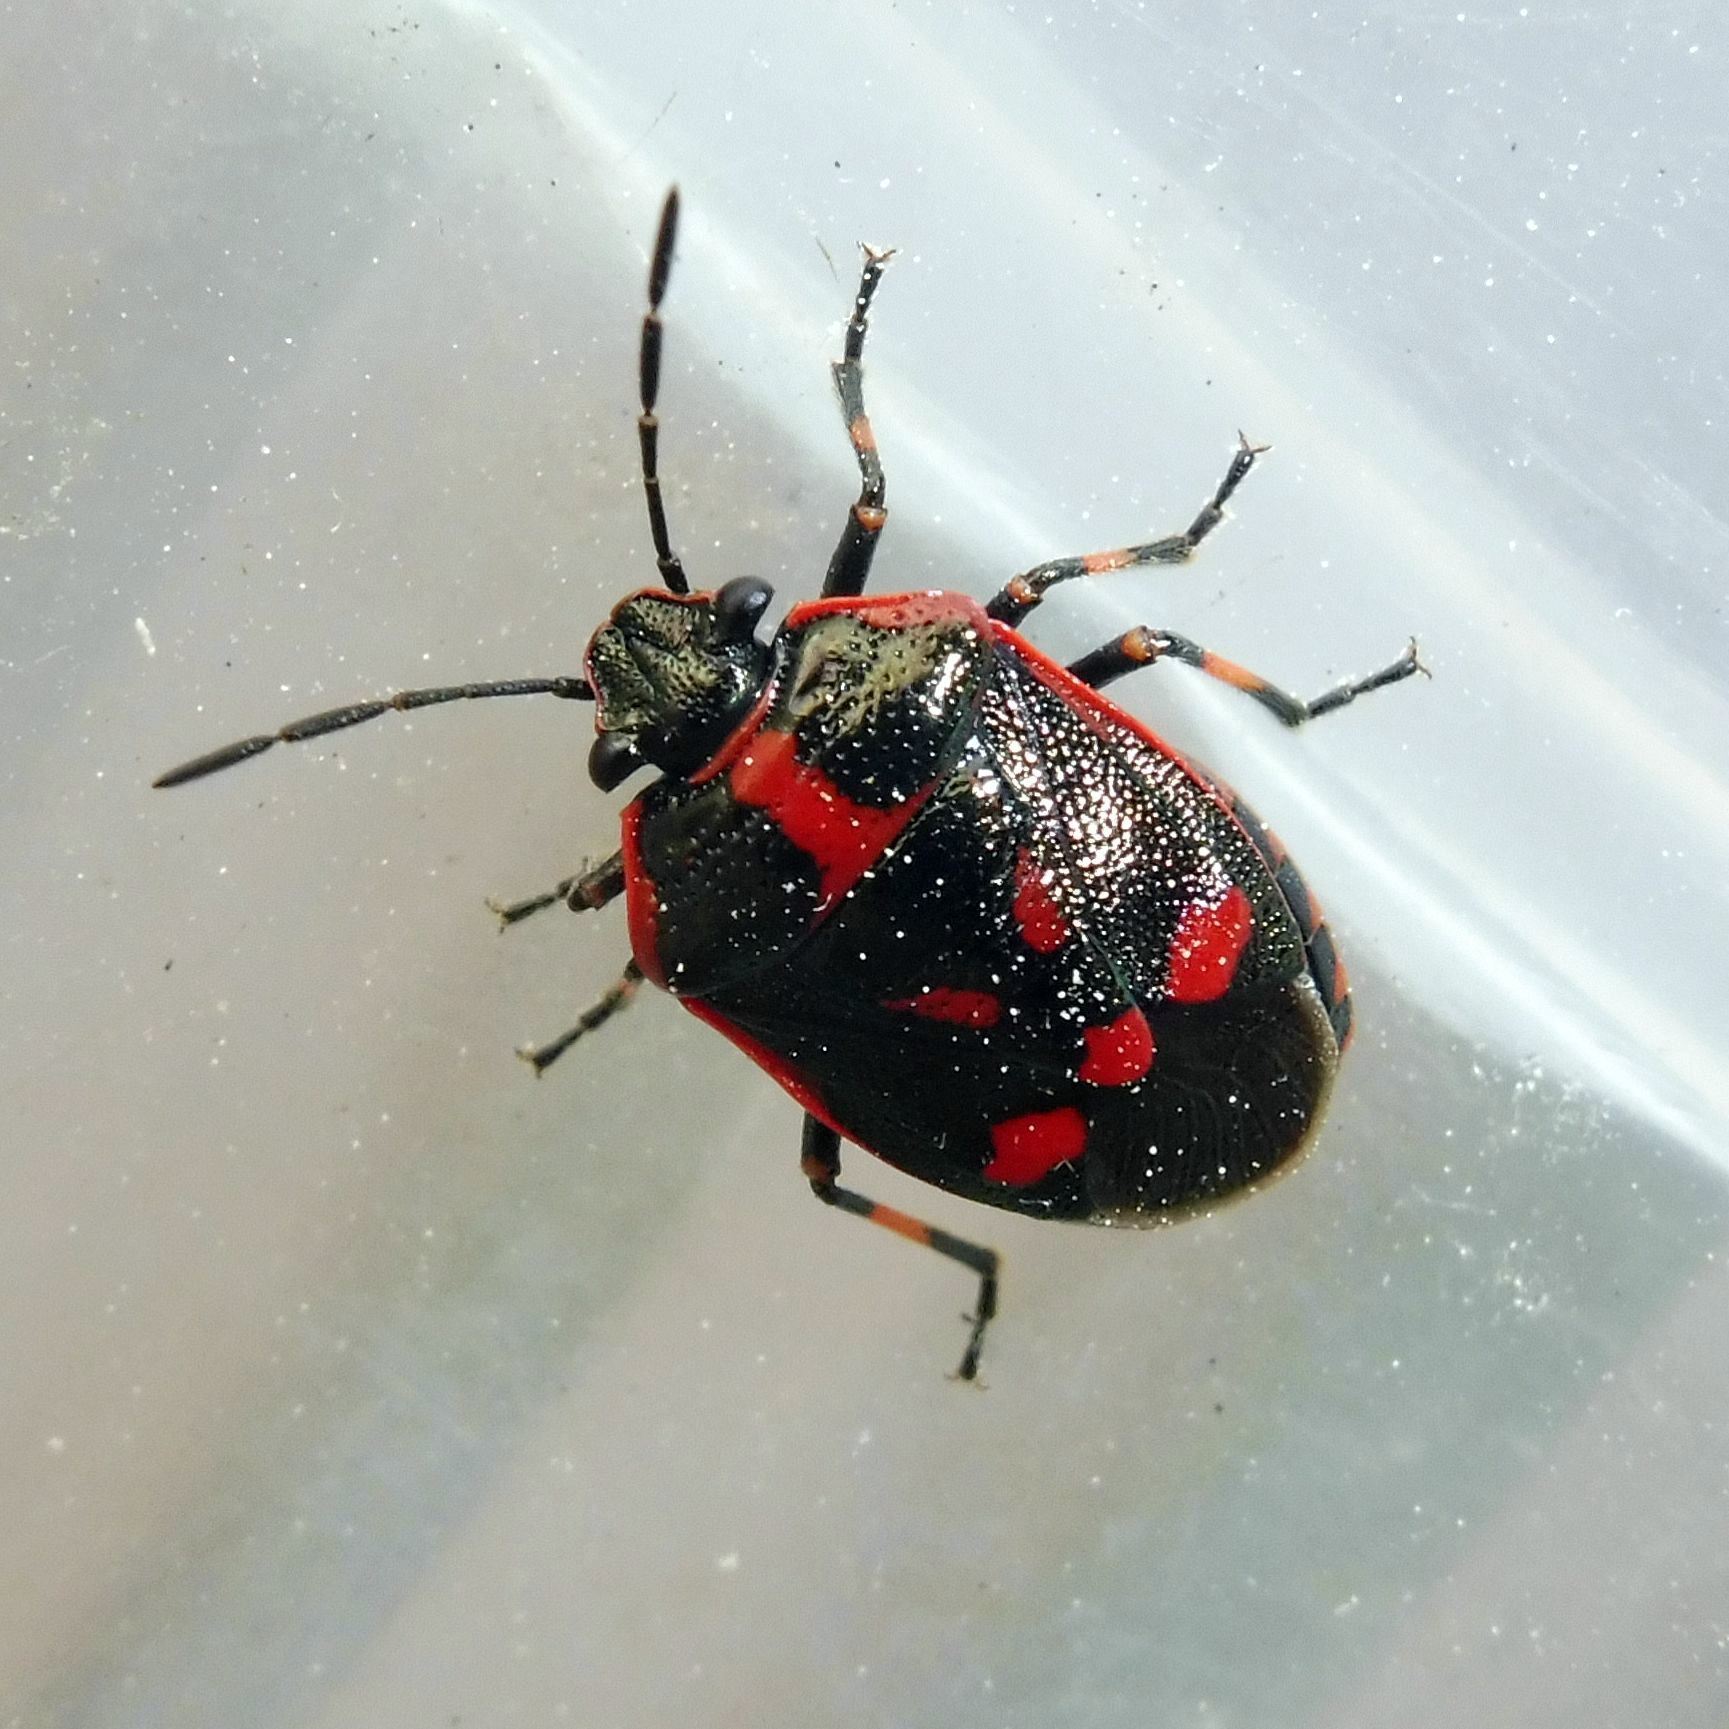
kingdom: Animalia
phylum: Arthropoda
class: Insecta
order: Hemiptera
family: Pentatomidae
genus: Eurydema
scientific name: Eurydema oleracea
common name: Cabbage bug
